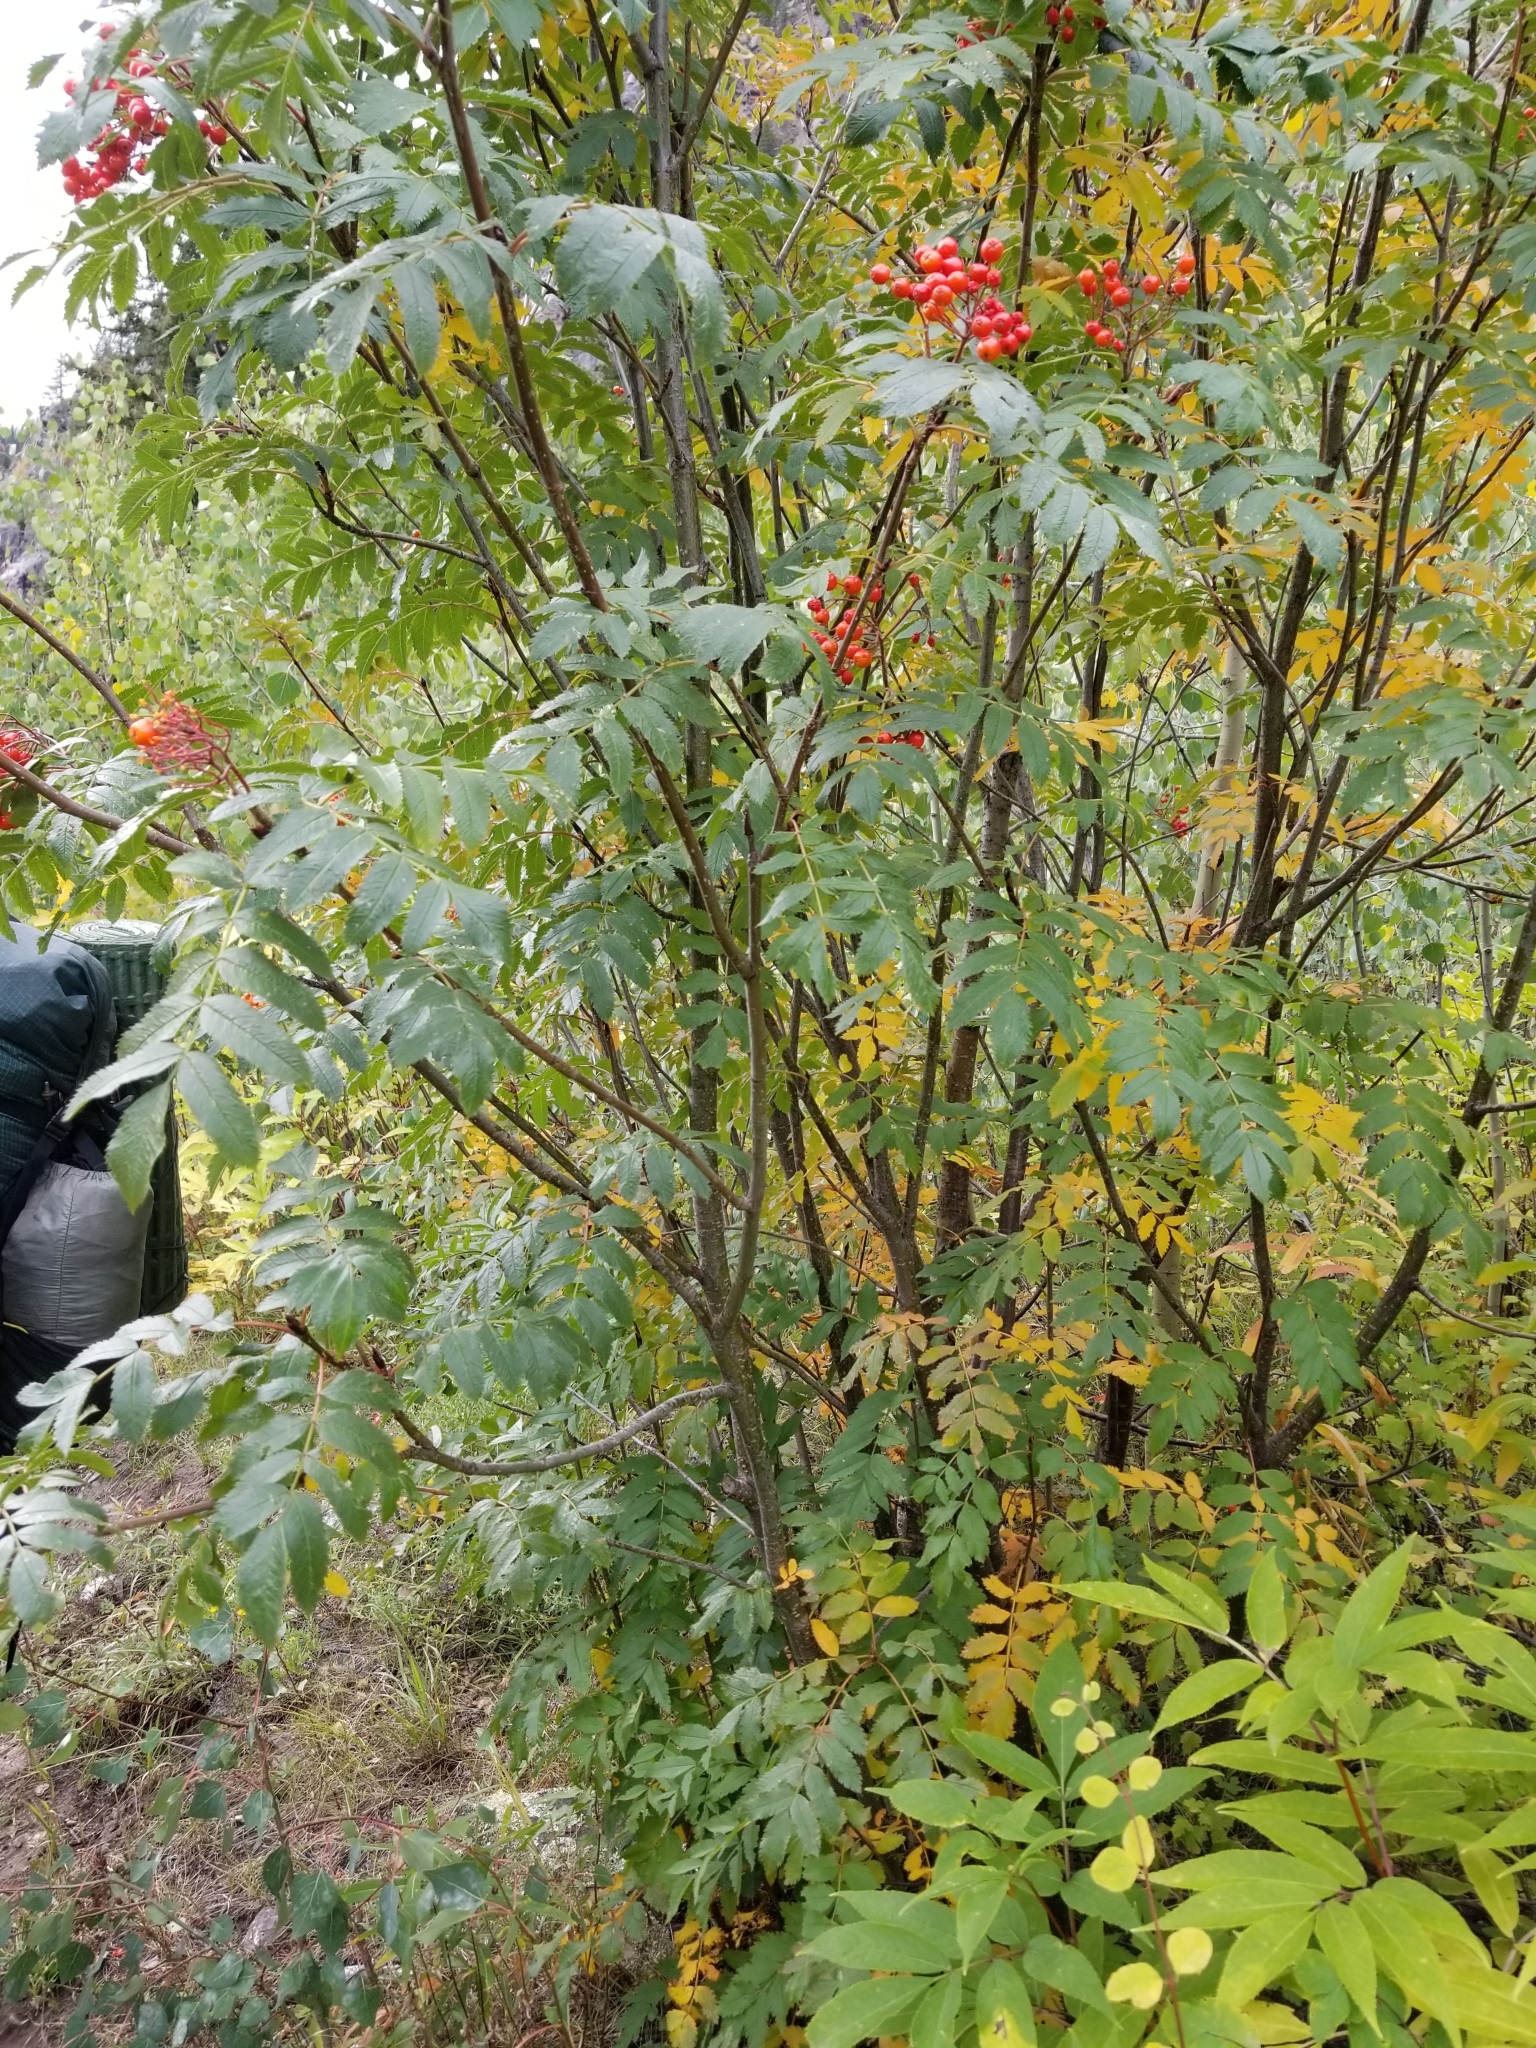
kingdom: Plantae
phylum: Tracheophyta
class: Magnoliopsida
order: Rosales
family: Rosaceae
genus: Sorbus
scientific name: Sorbus scopulina
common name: Greene's mountain-ash
